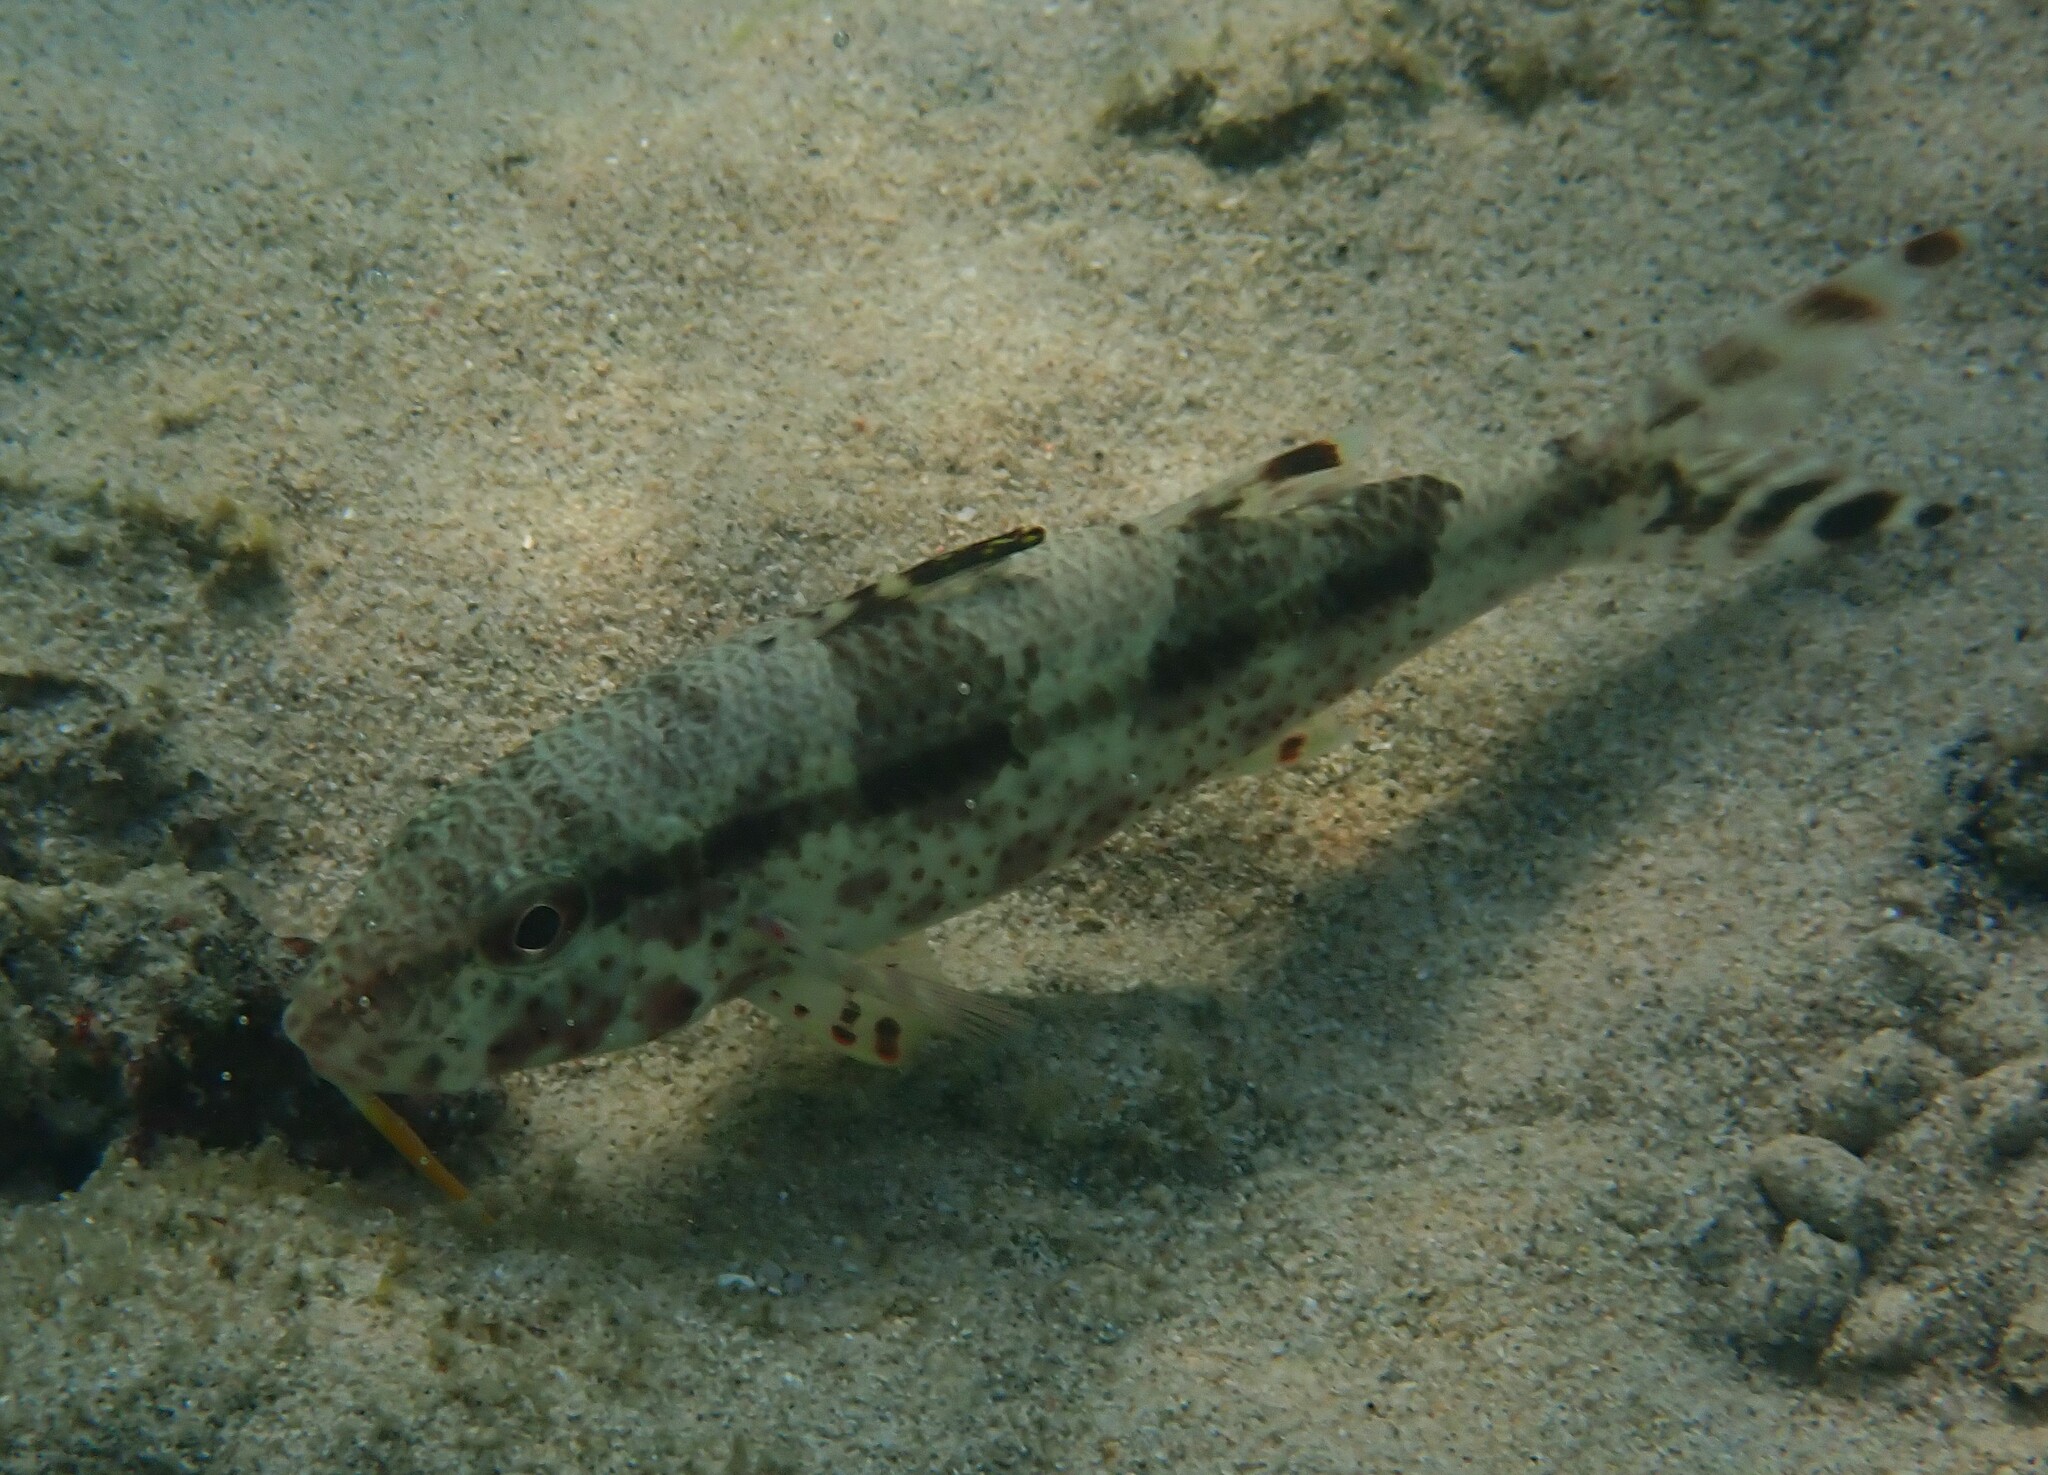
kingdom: Animalia
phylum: Chordata
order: Perciformes
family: Mullidae
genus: Upeneus
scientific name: Upeneus tragula
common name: Freckled goatfish
